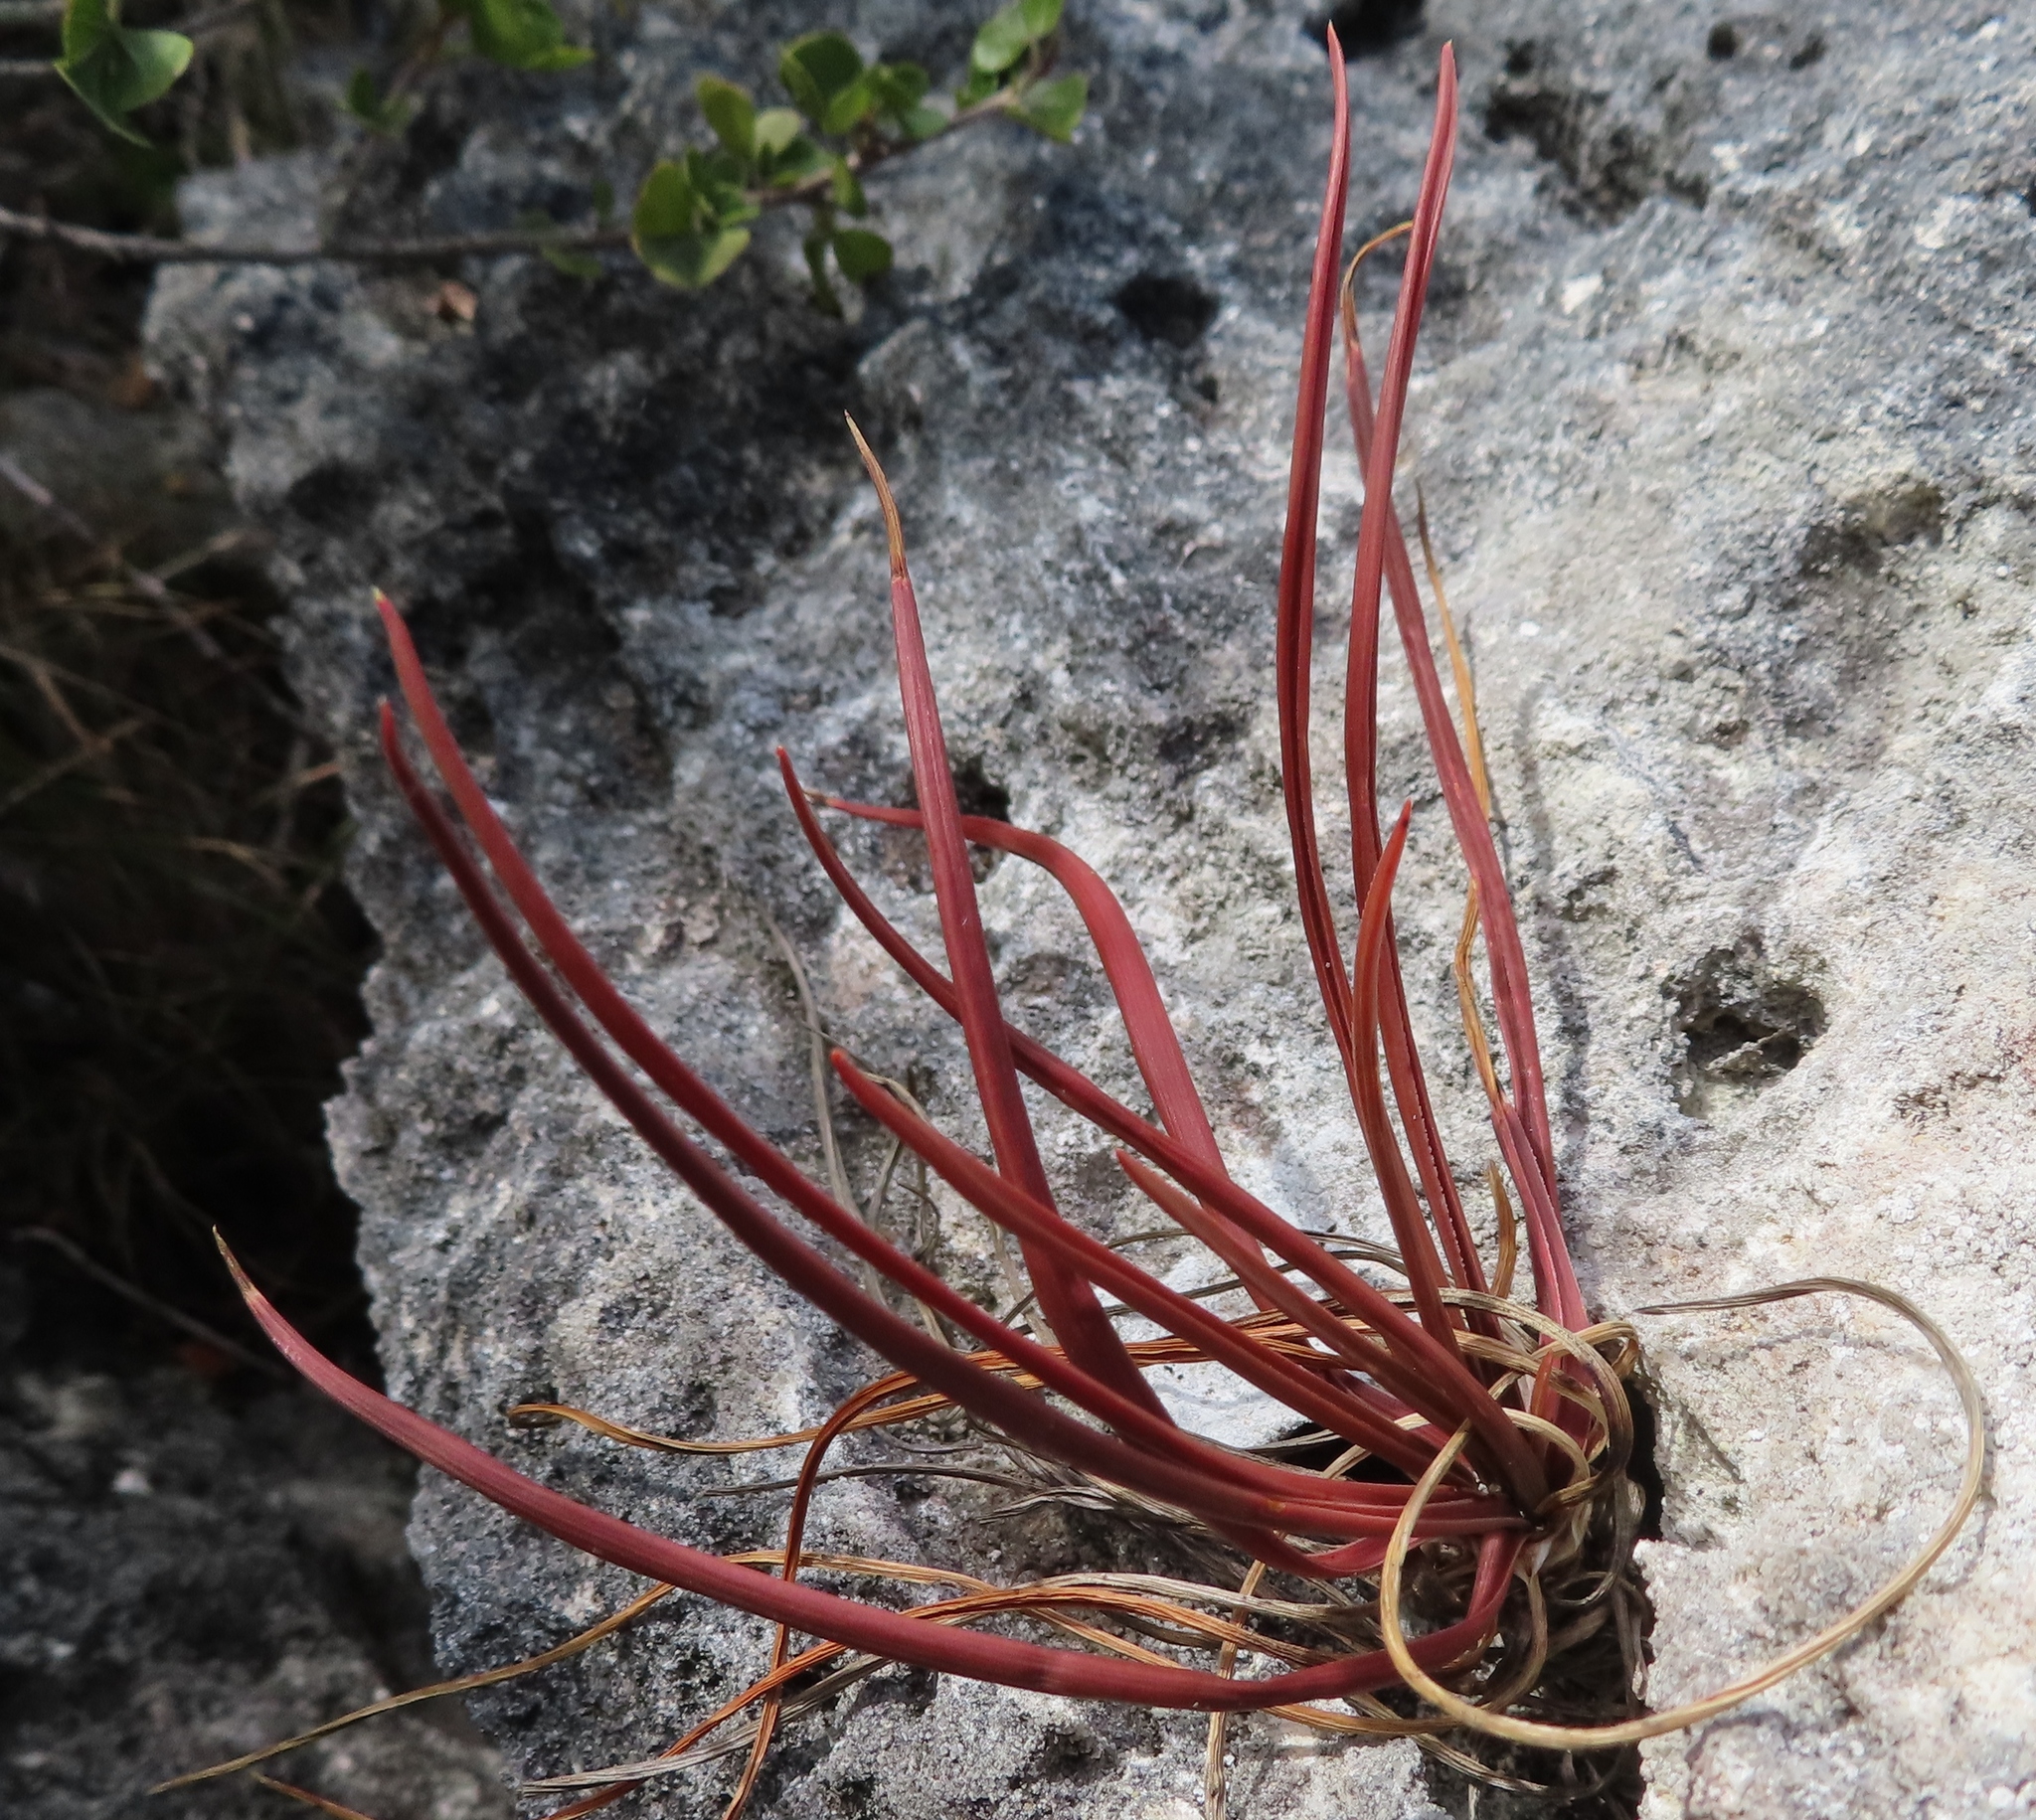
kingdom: Plantae
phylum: Tracheophyta
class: Liliopsida
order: Asparagales
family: Asphodelaceae
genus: Bulbine
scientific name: Bulbine annua
